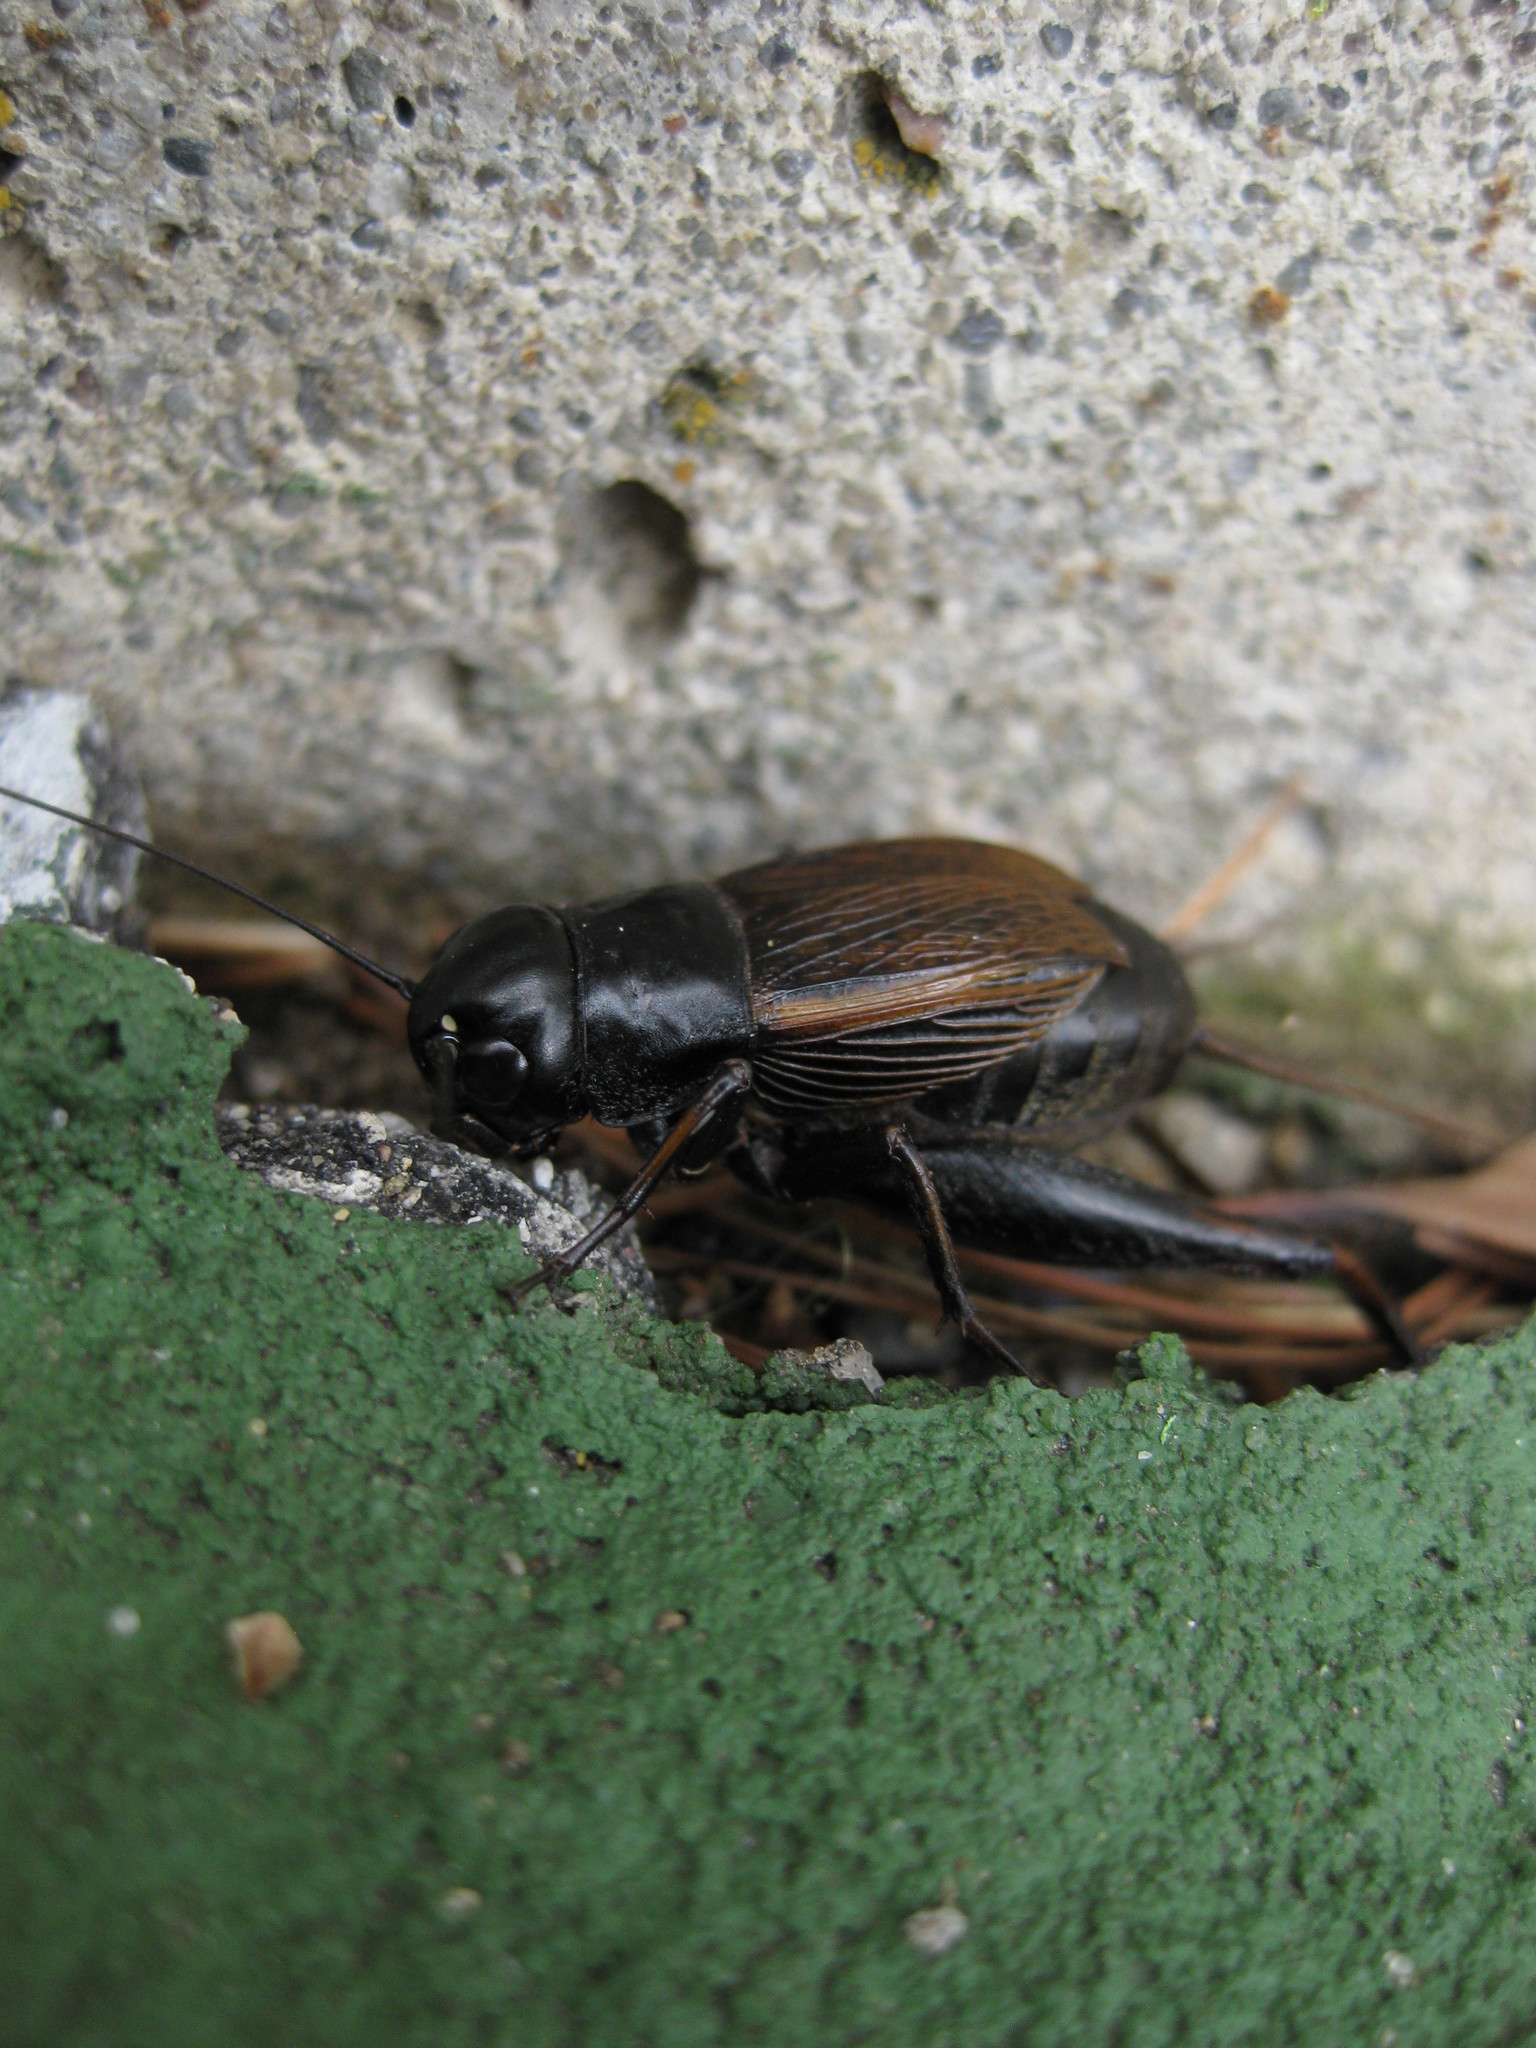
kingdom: Animalia
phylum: Arthropoda
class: Insecta
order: Orthoptera
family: Gryllidae
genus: Gryllus
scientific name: Gryllus pennsylvanicus
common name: Fall field cricket
